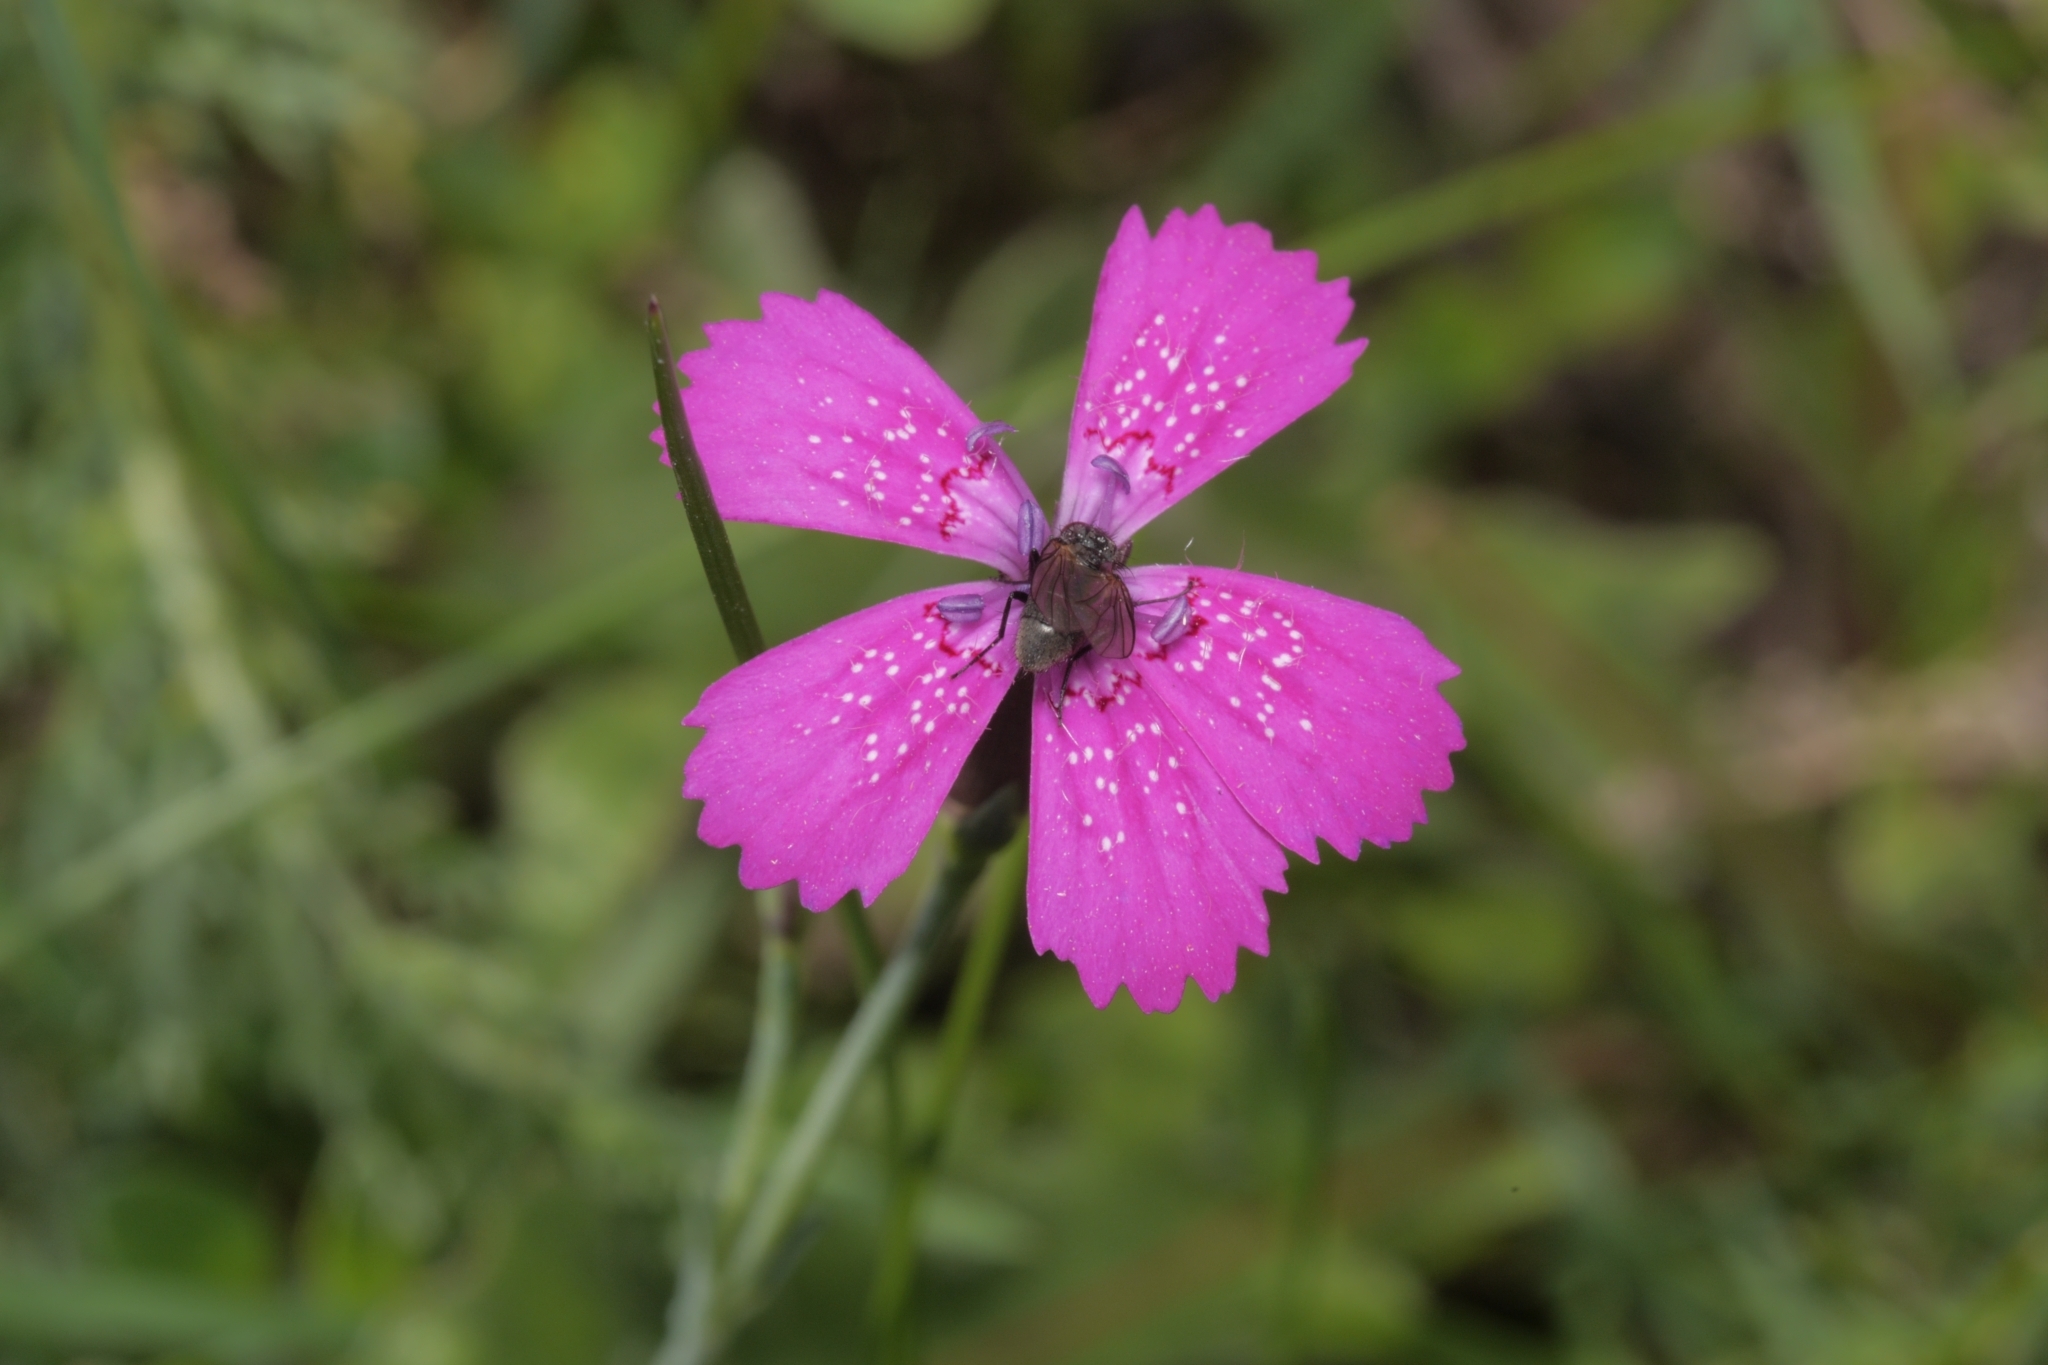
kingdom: Plantae
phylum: Tracheophyta
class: Magnoliopsida
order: Caryophyllales
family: Caryophyllaceae
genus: Dianthus
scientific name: Dianthus deltoides
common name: Maiden pink
